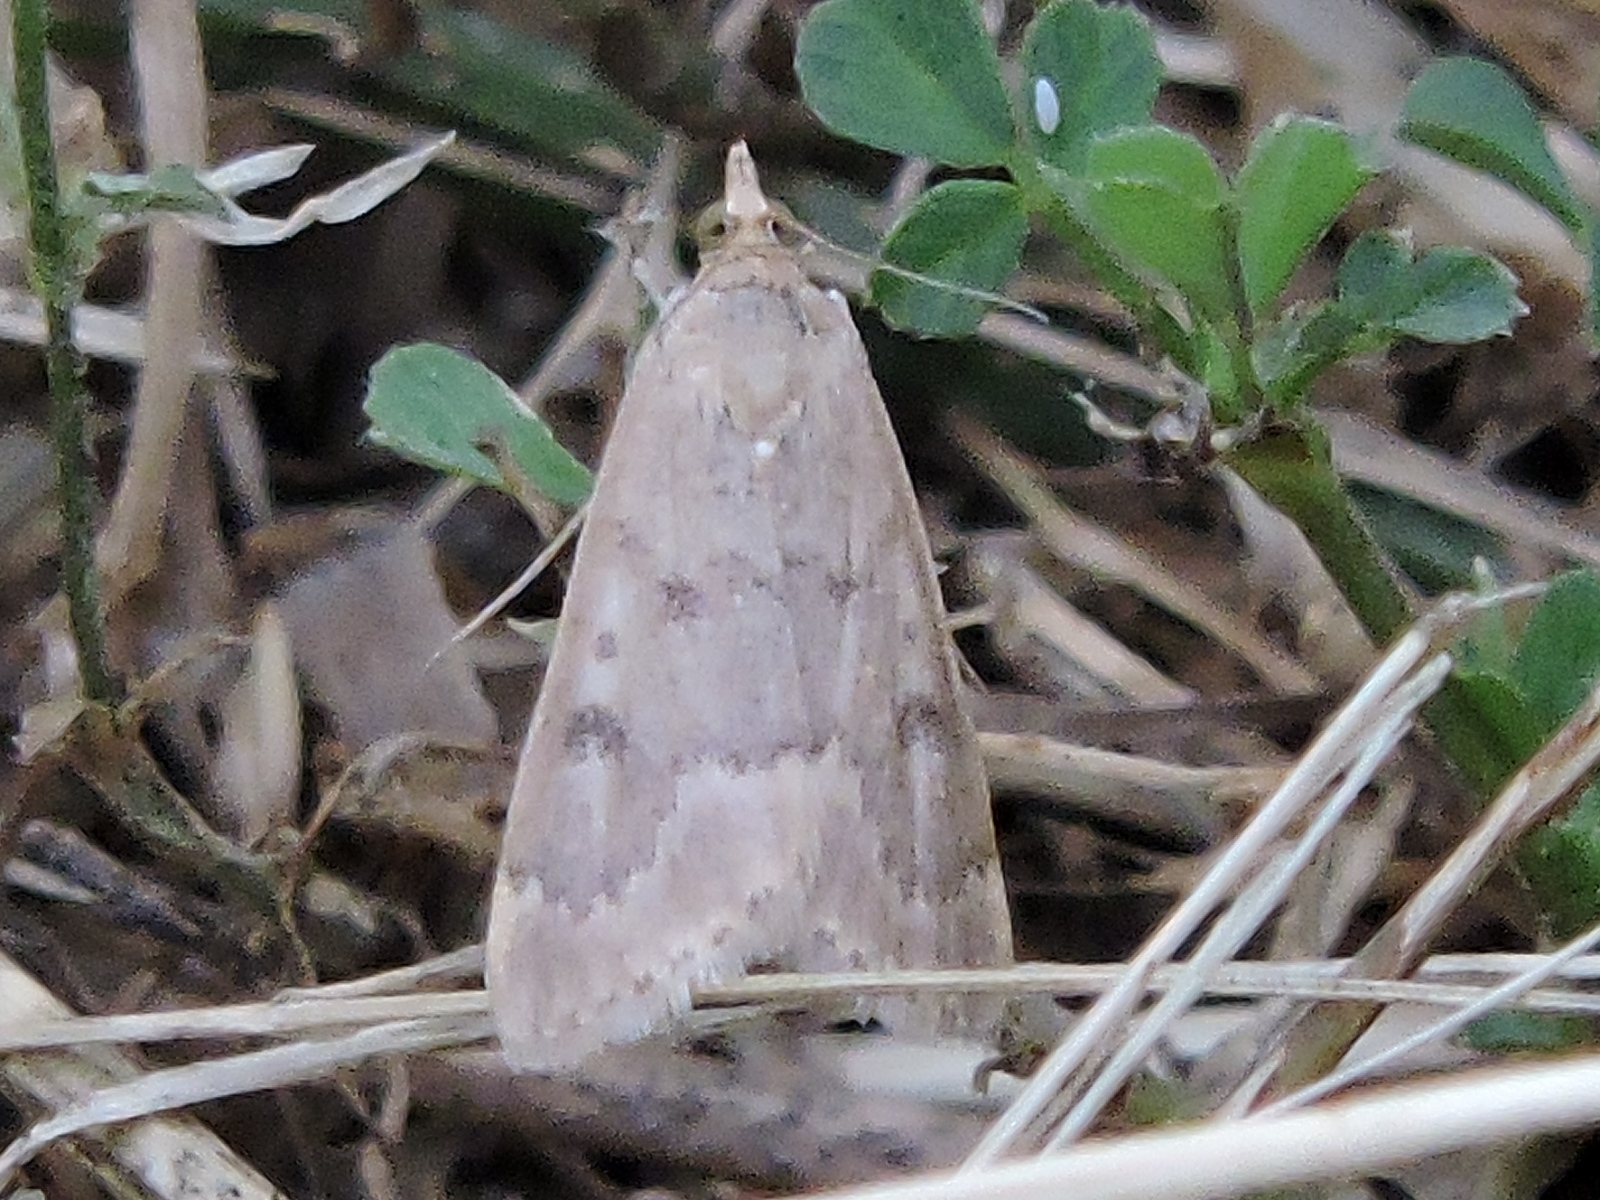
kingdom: Animalia
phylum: Arthropoda
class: Insecta
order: Lepidoptera
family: Crambidae
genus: Achyra
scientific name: Achyra rantalis
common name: Garden webworm
